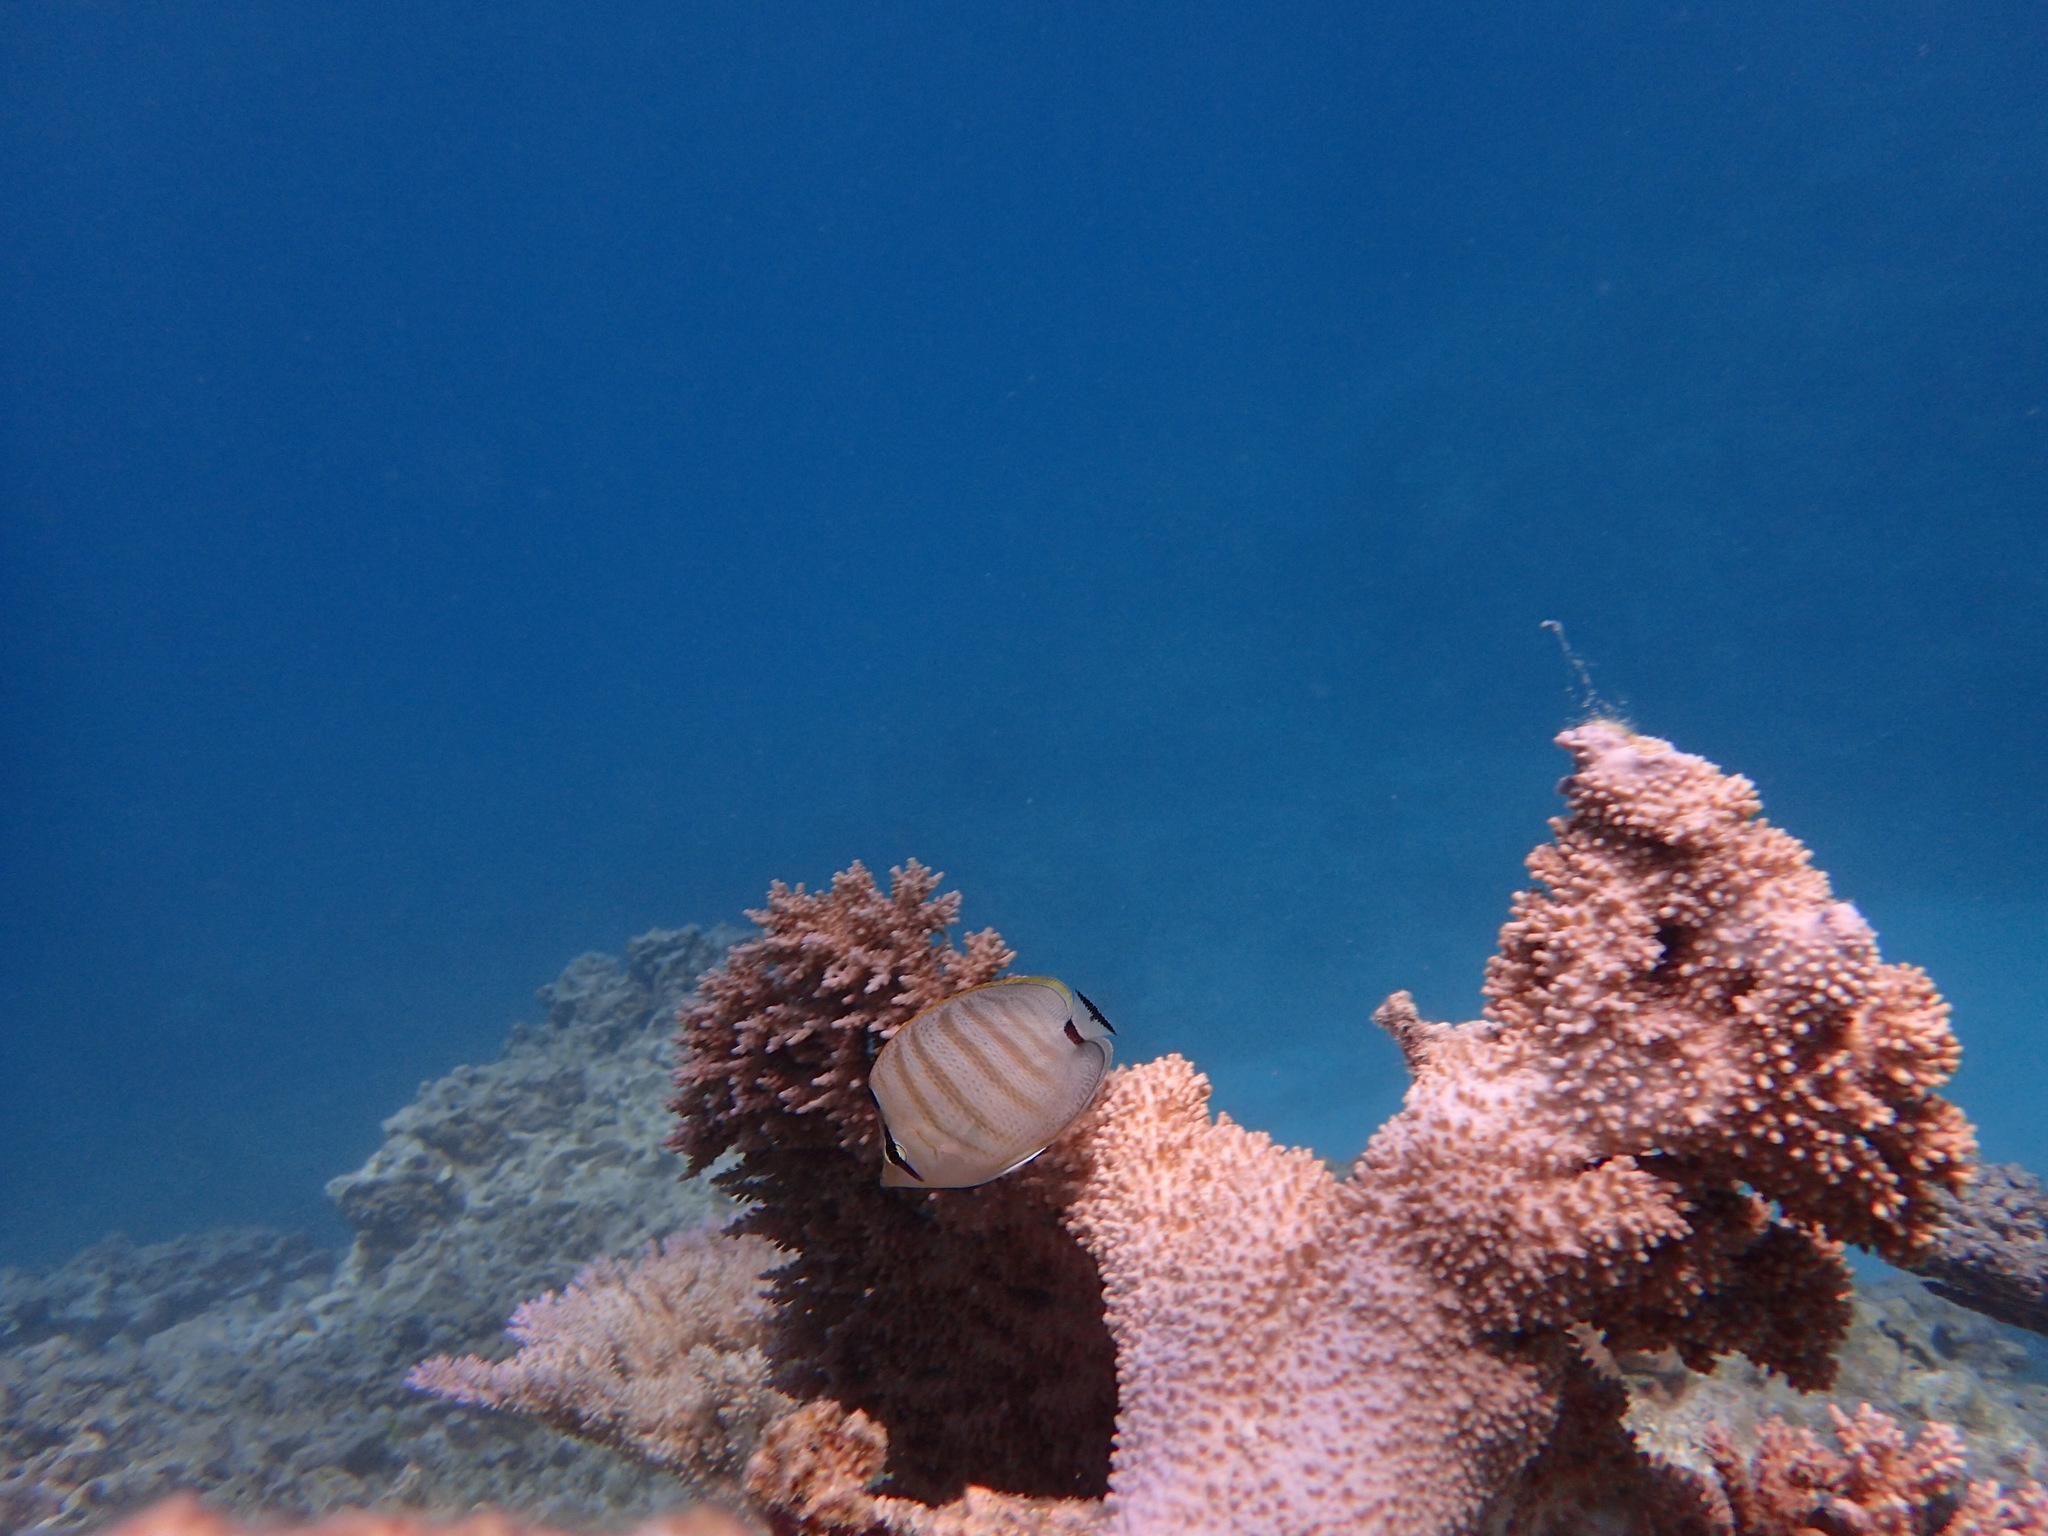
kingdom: Animalia
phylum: Chordata
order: Perciformes
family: Chaetodontidae
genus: Chaetodon
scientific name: Chaetodon multicinctus
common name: Multiband butterflyfish
